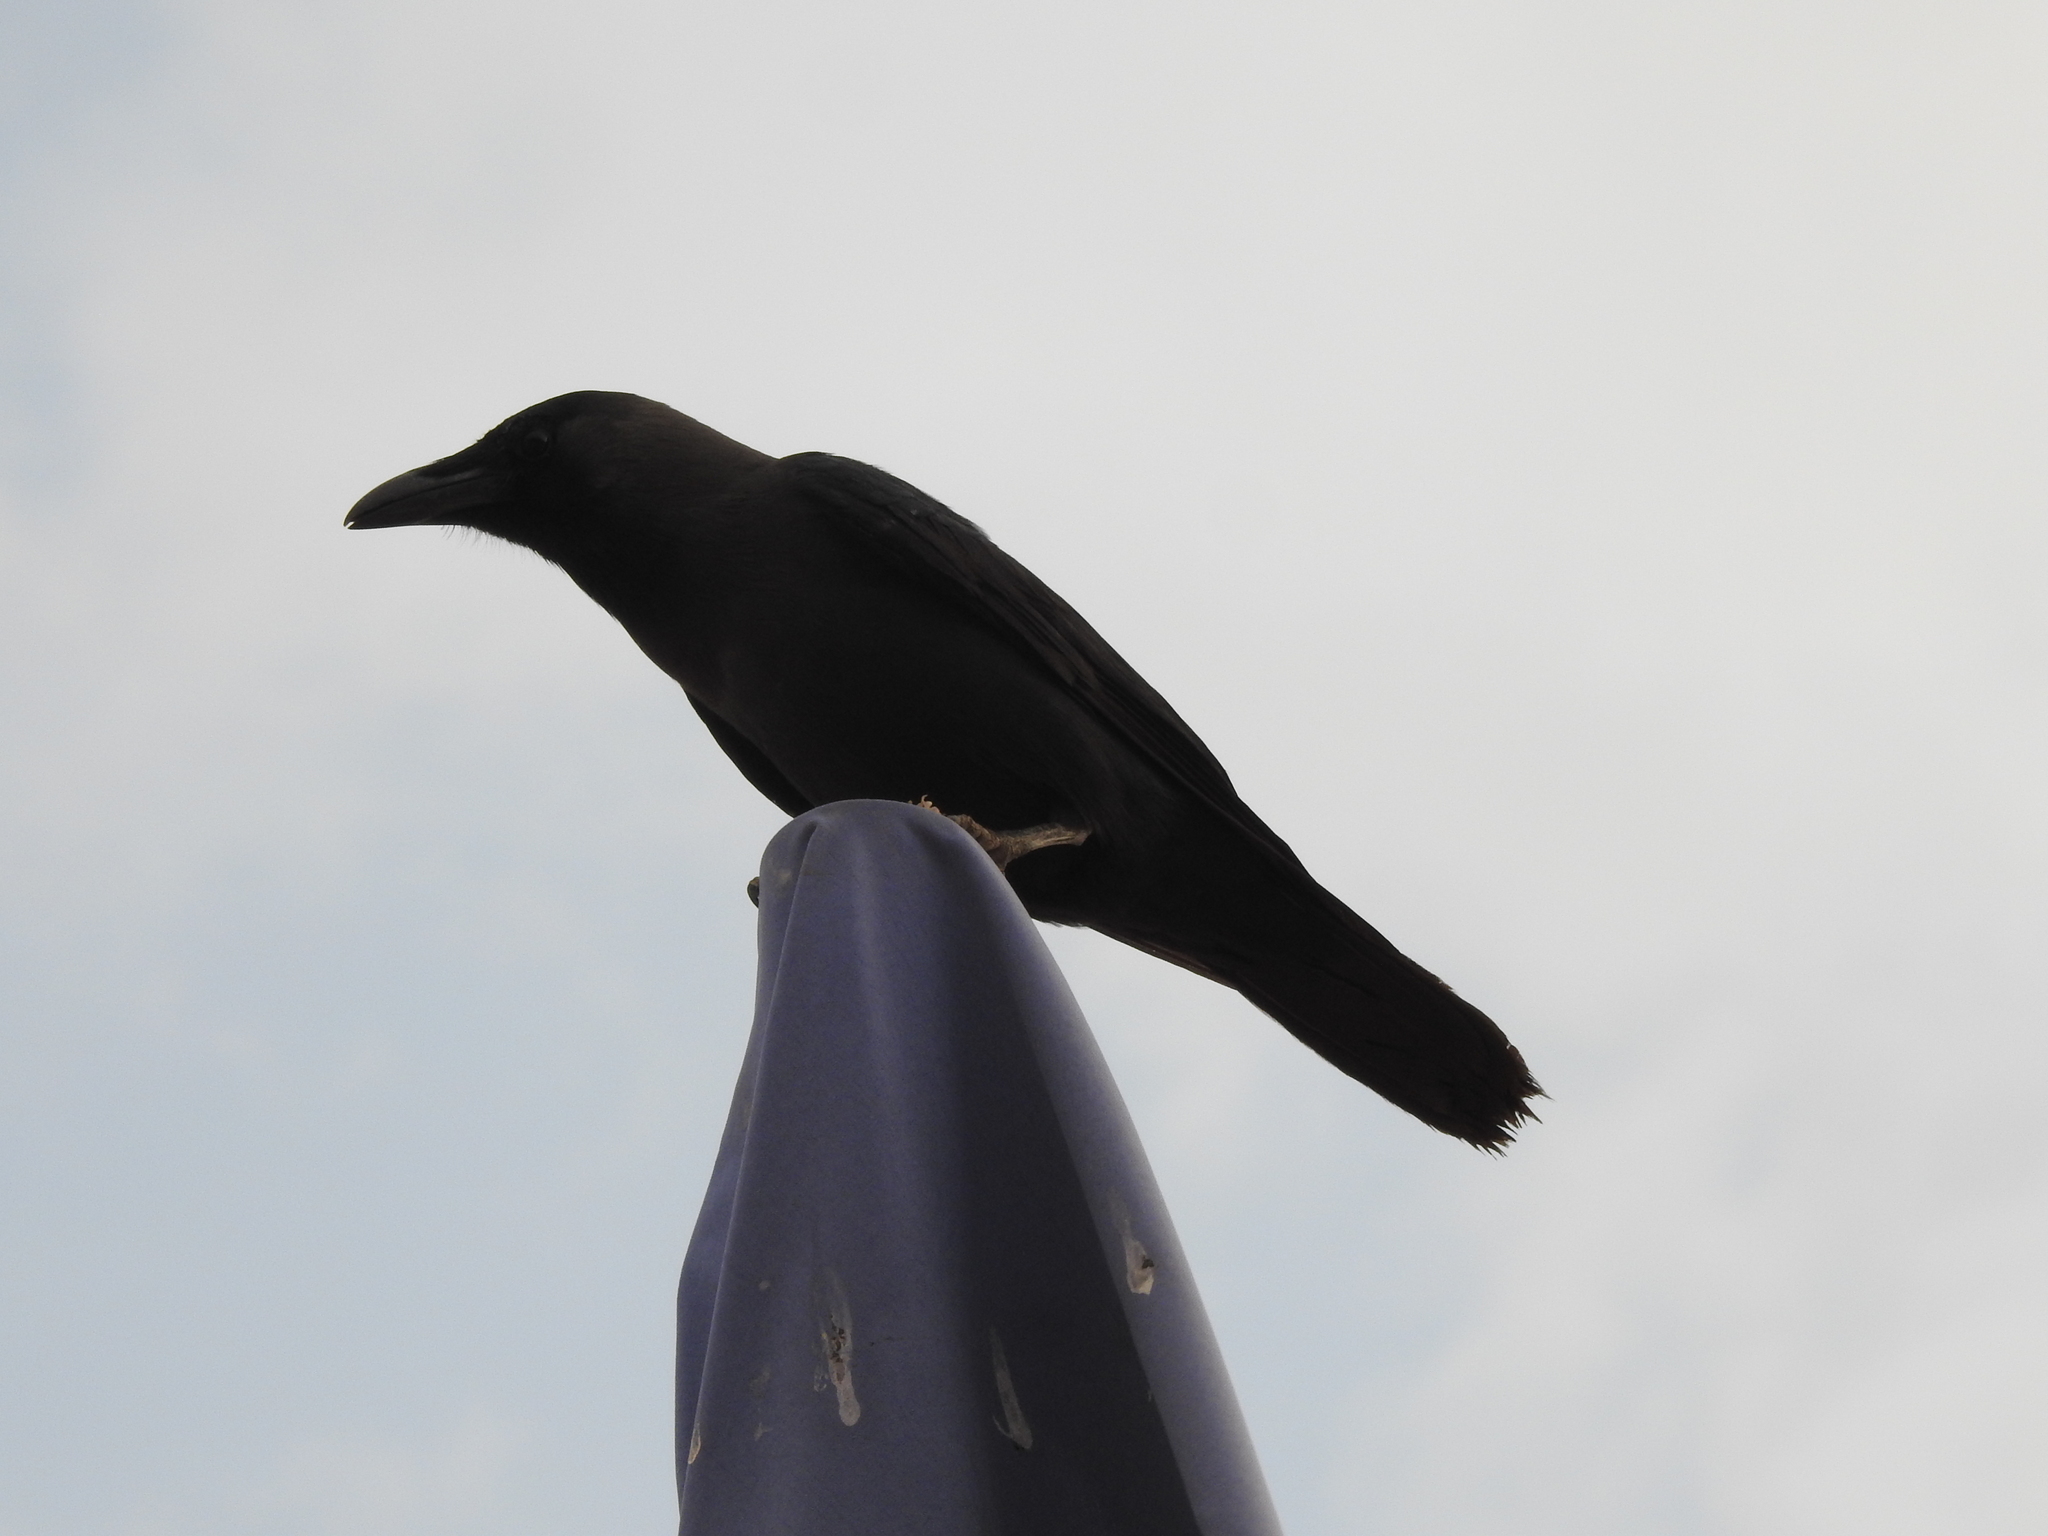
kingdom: Animalia
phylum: Chordata
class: Aves
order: Passeriformes
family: Corvidae
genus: Corvus
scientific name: Corvus splendens
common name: House crow
